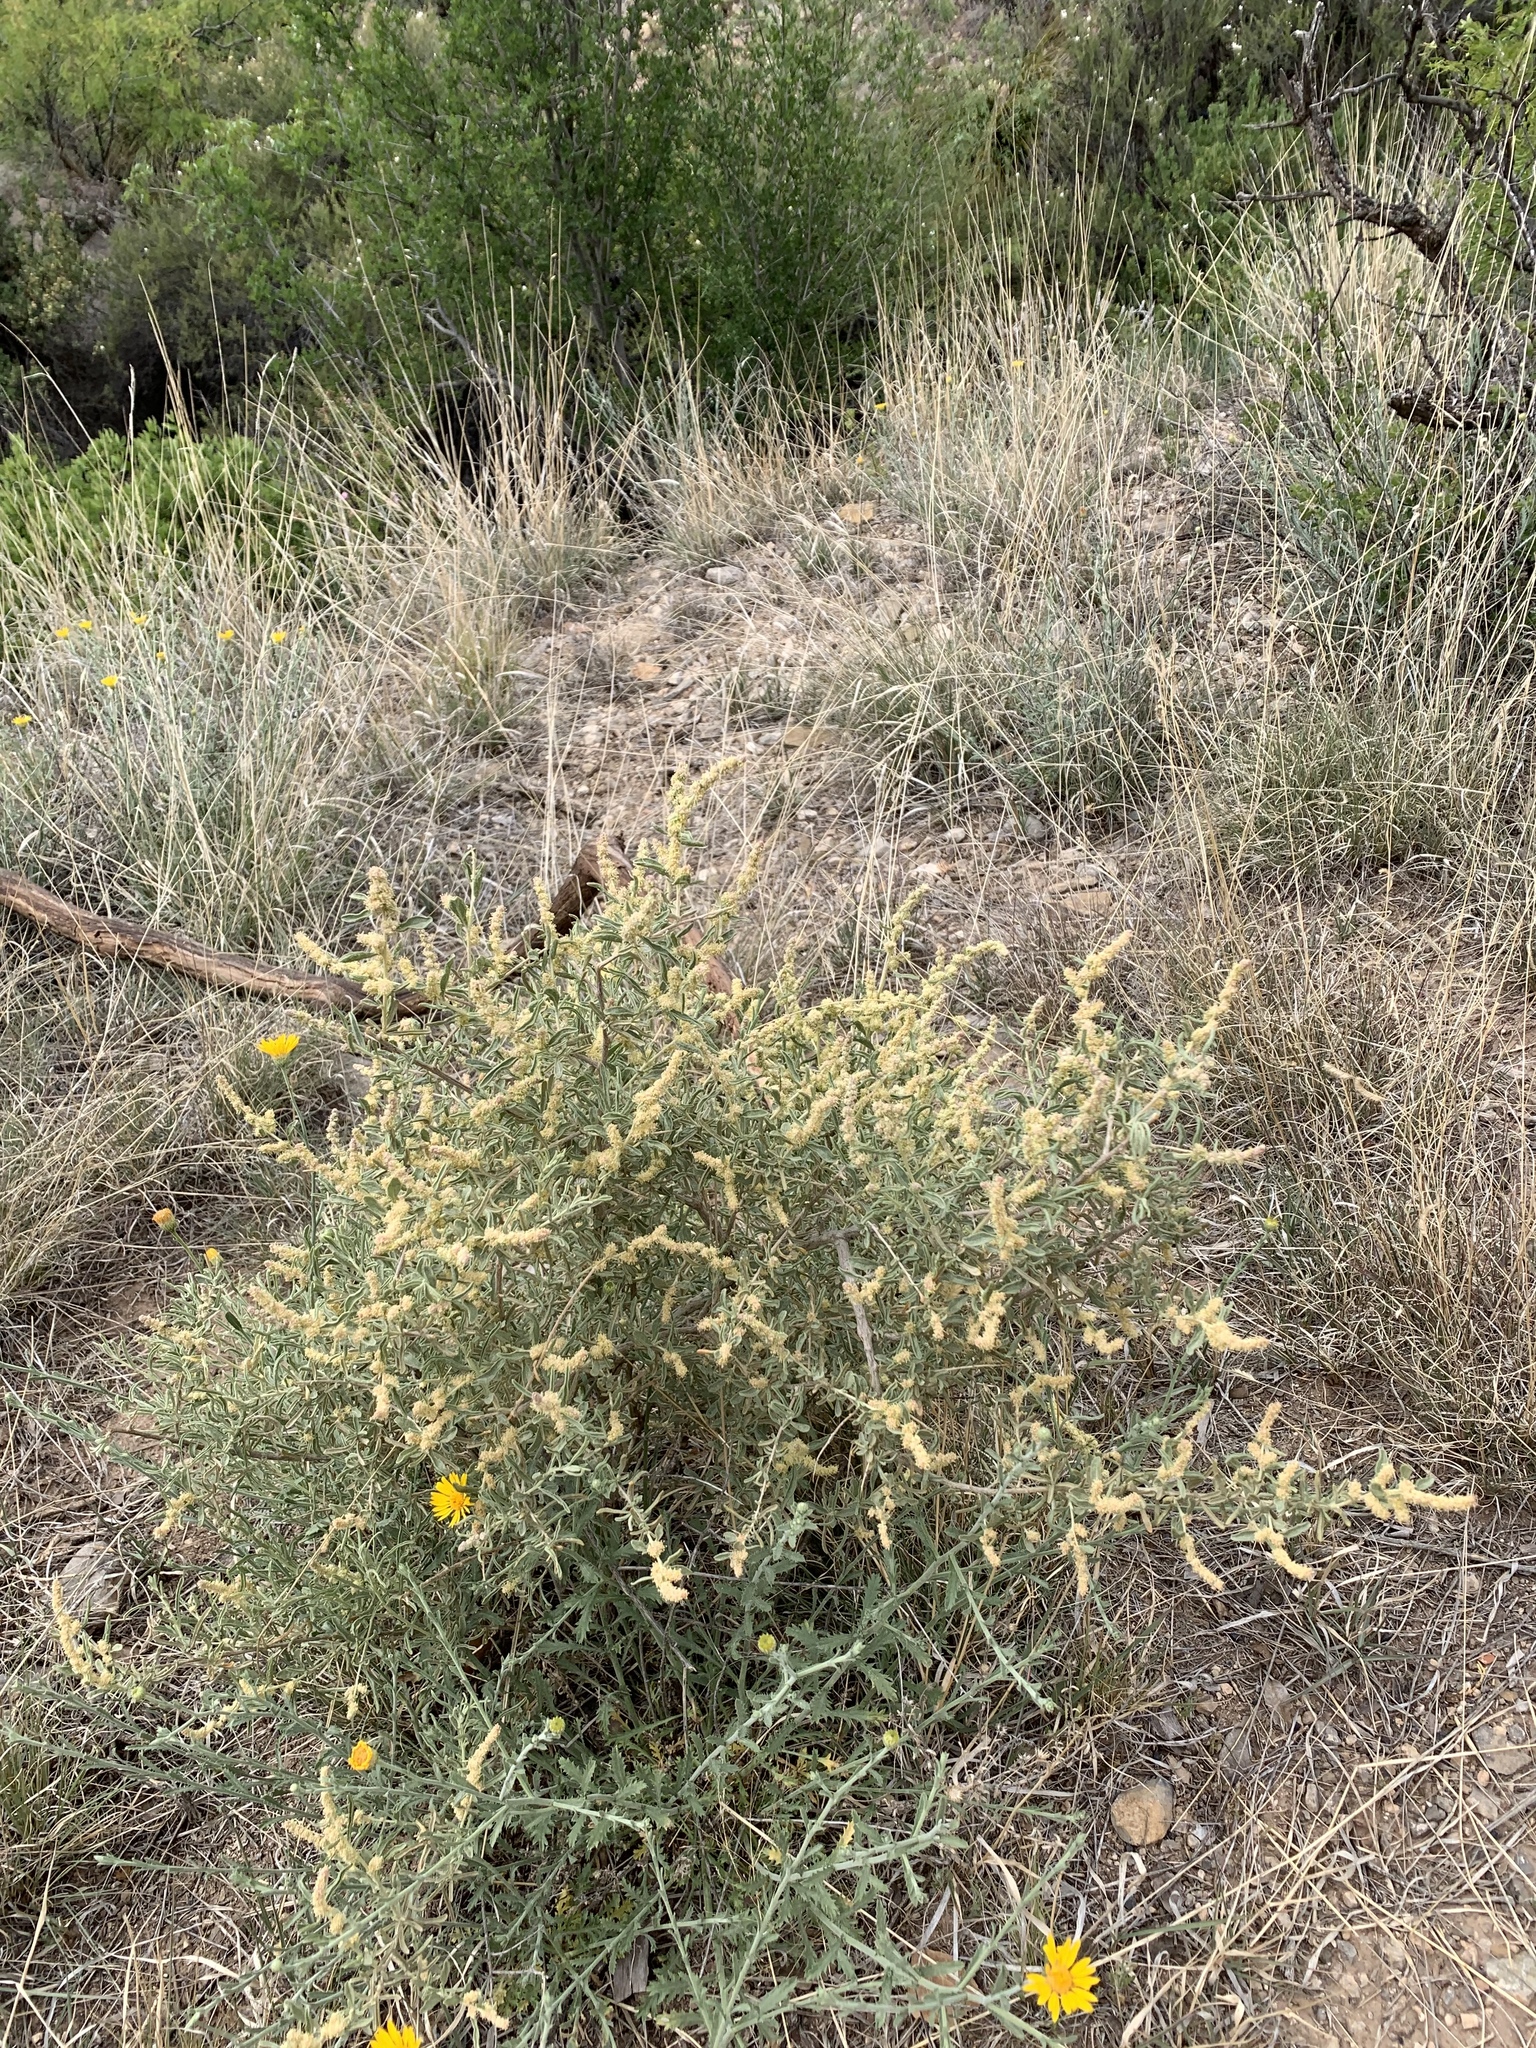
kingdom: Plantae
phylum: Tracheophyta
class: Magnoliopsida
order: Caryophyllales
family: Amaranthaceae
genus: Atriplex
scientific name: Atriplex canescens
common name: Four-wing saltbush
